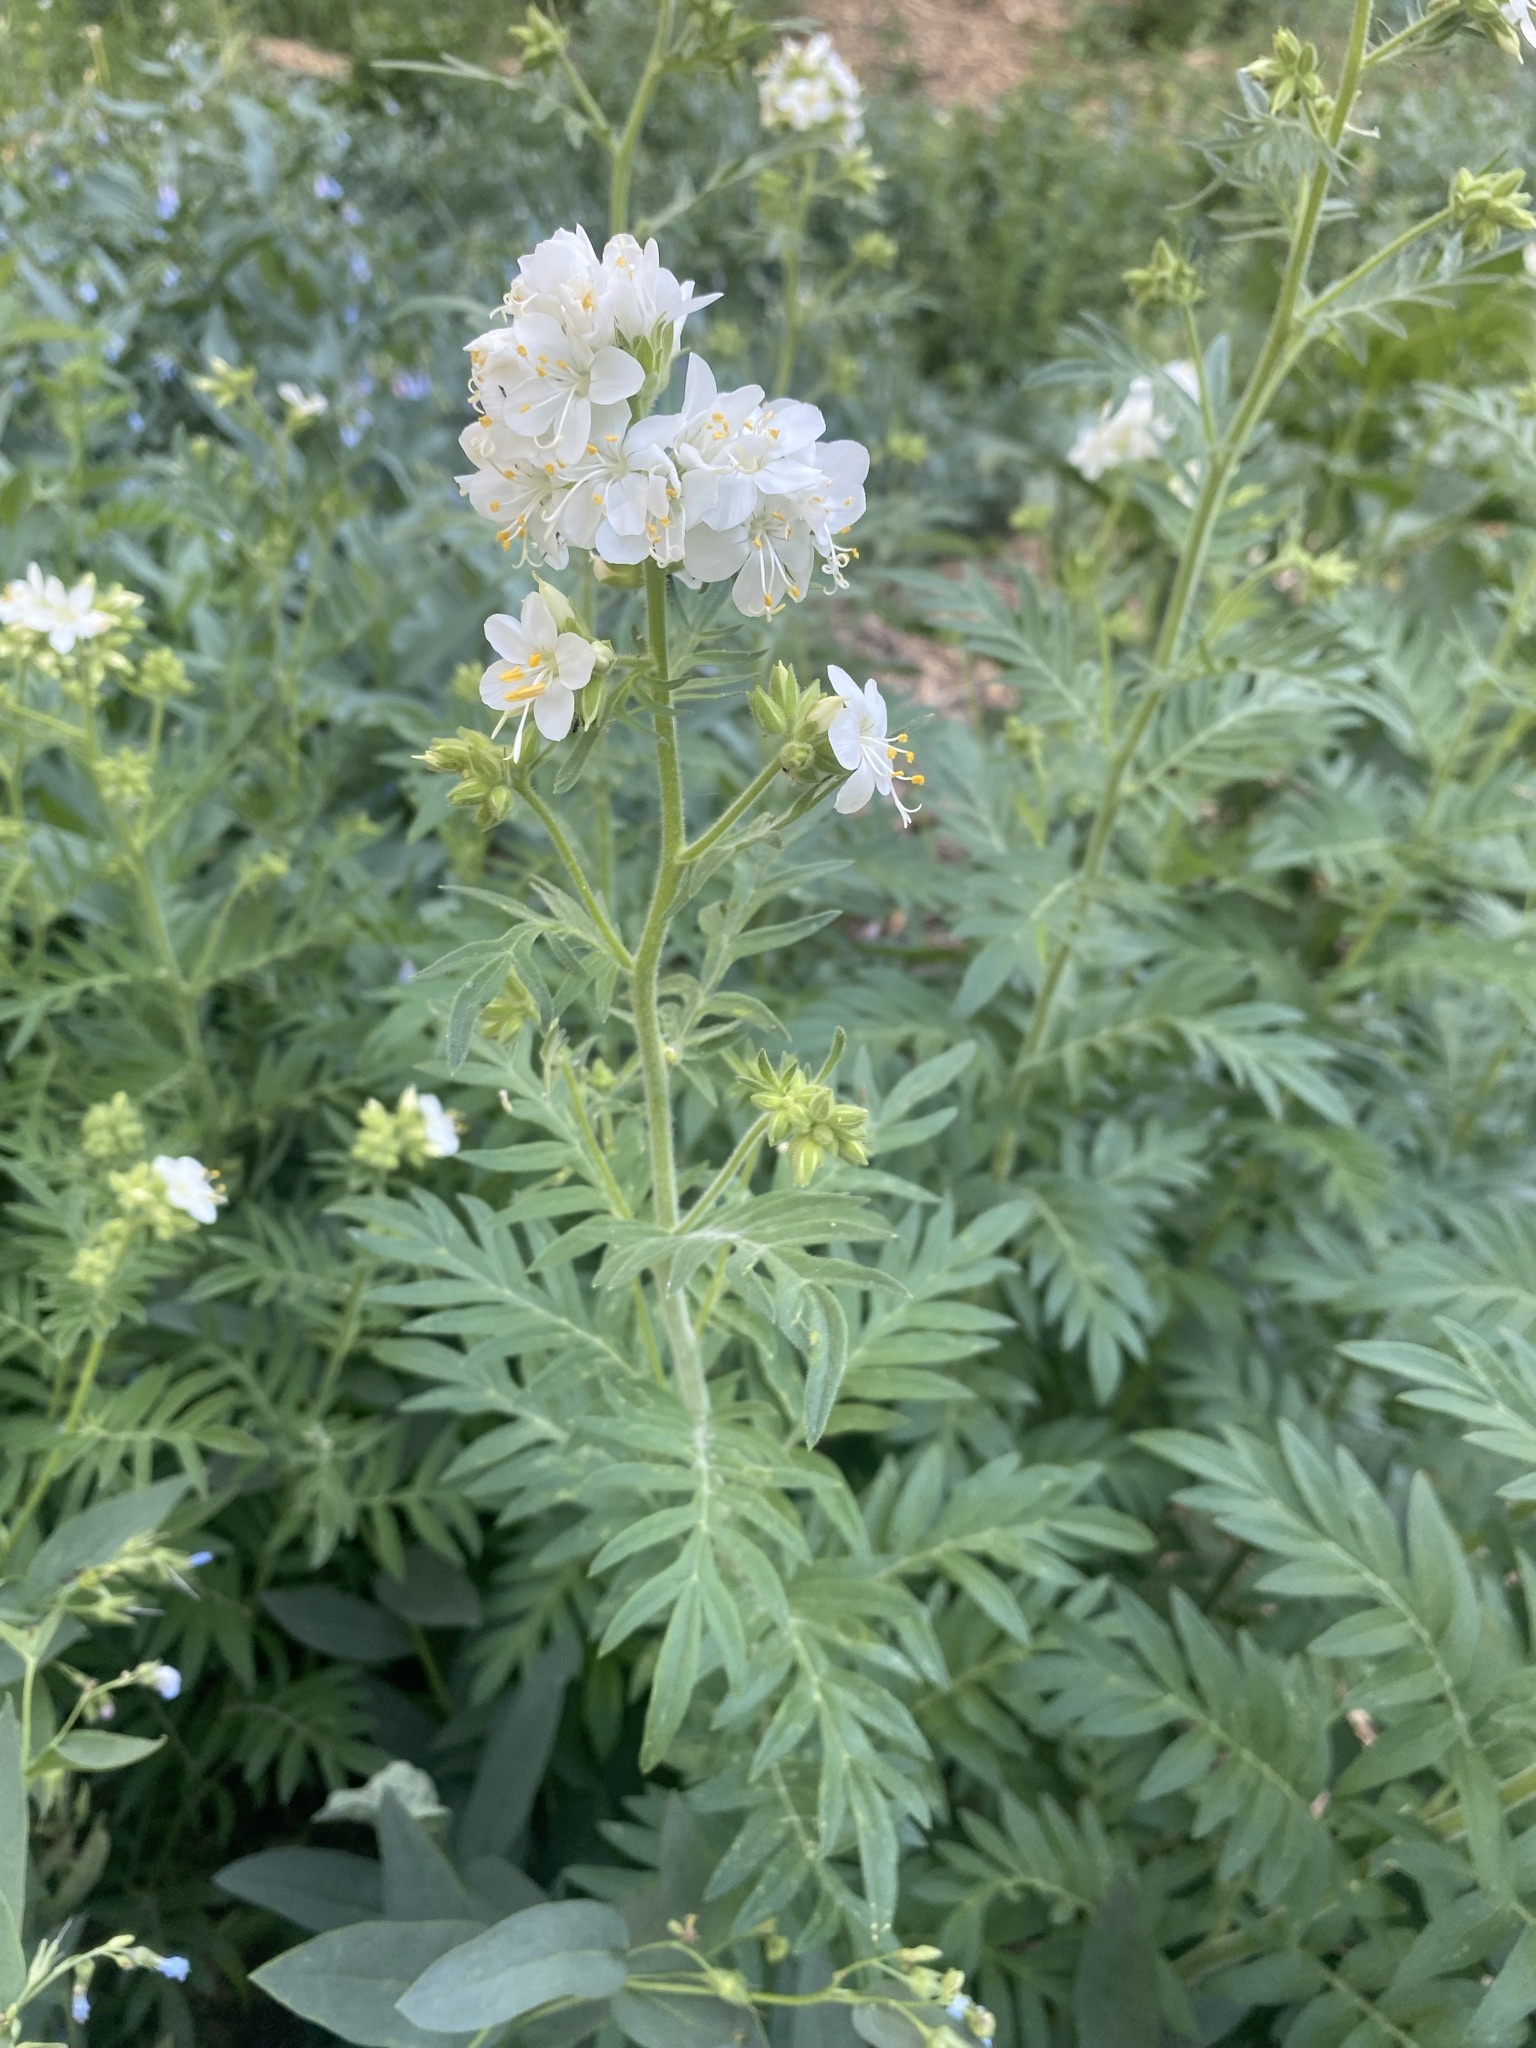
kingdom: Plantae
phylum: Tracheophyta
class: Magnoliopsida
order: Ericales
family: Polemoniaceae
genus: Polemonium
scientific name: Polemonium foliosissimum
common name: Leafy jacob's-ladder
